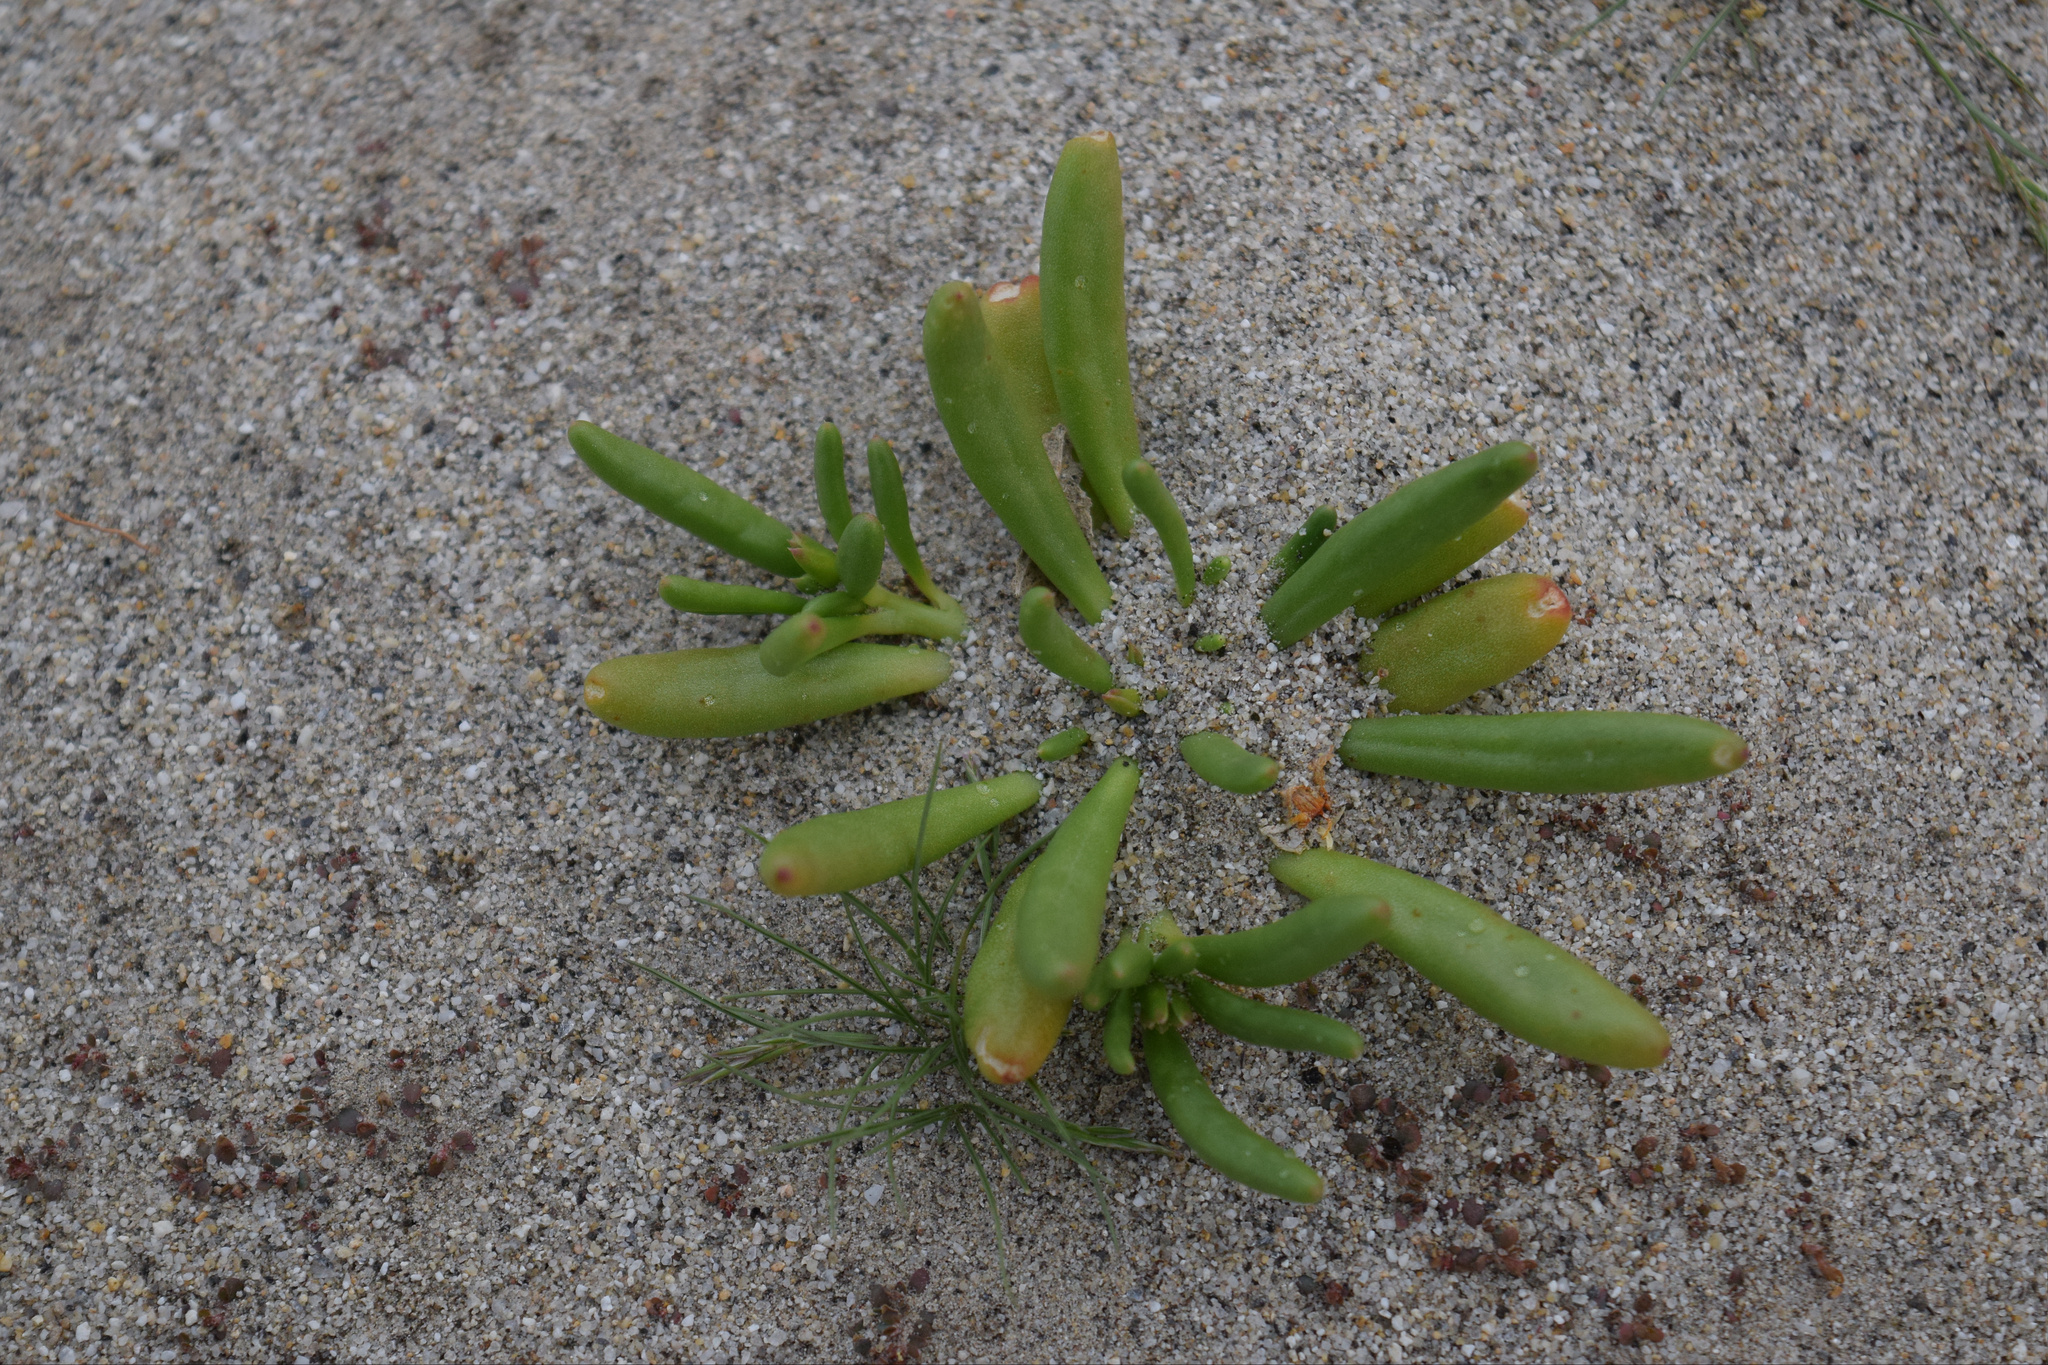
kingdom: Plantae
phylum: Tracheophyta
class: Magnoliopsida
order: Caryophyllales
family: Montiaceae
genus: Thingia
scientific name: Thingia ambigua
